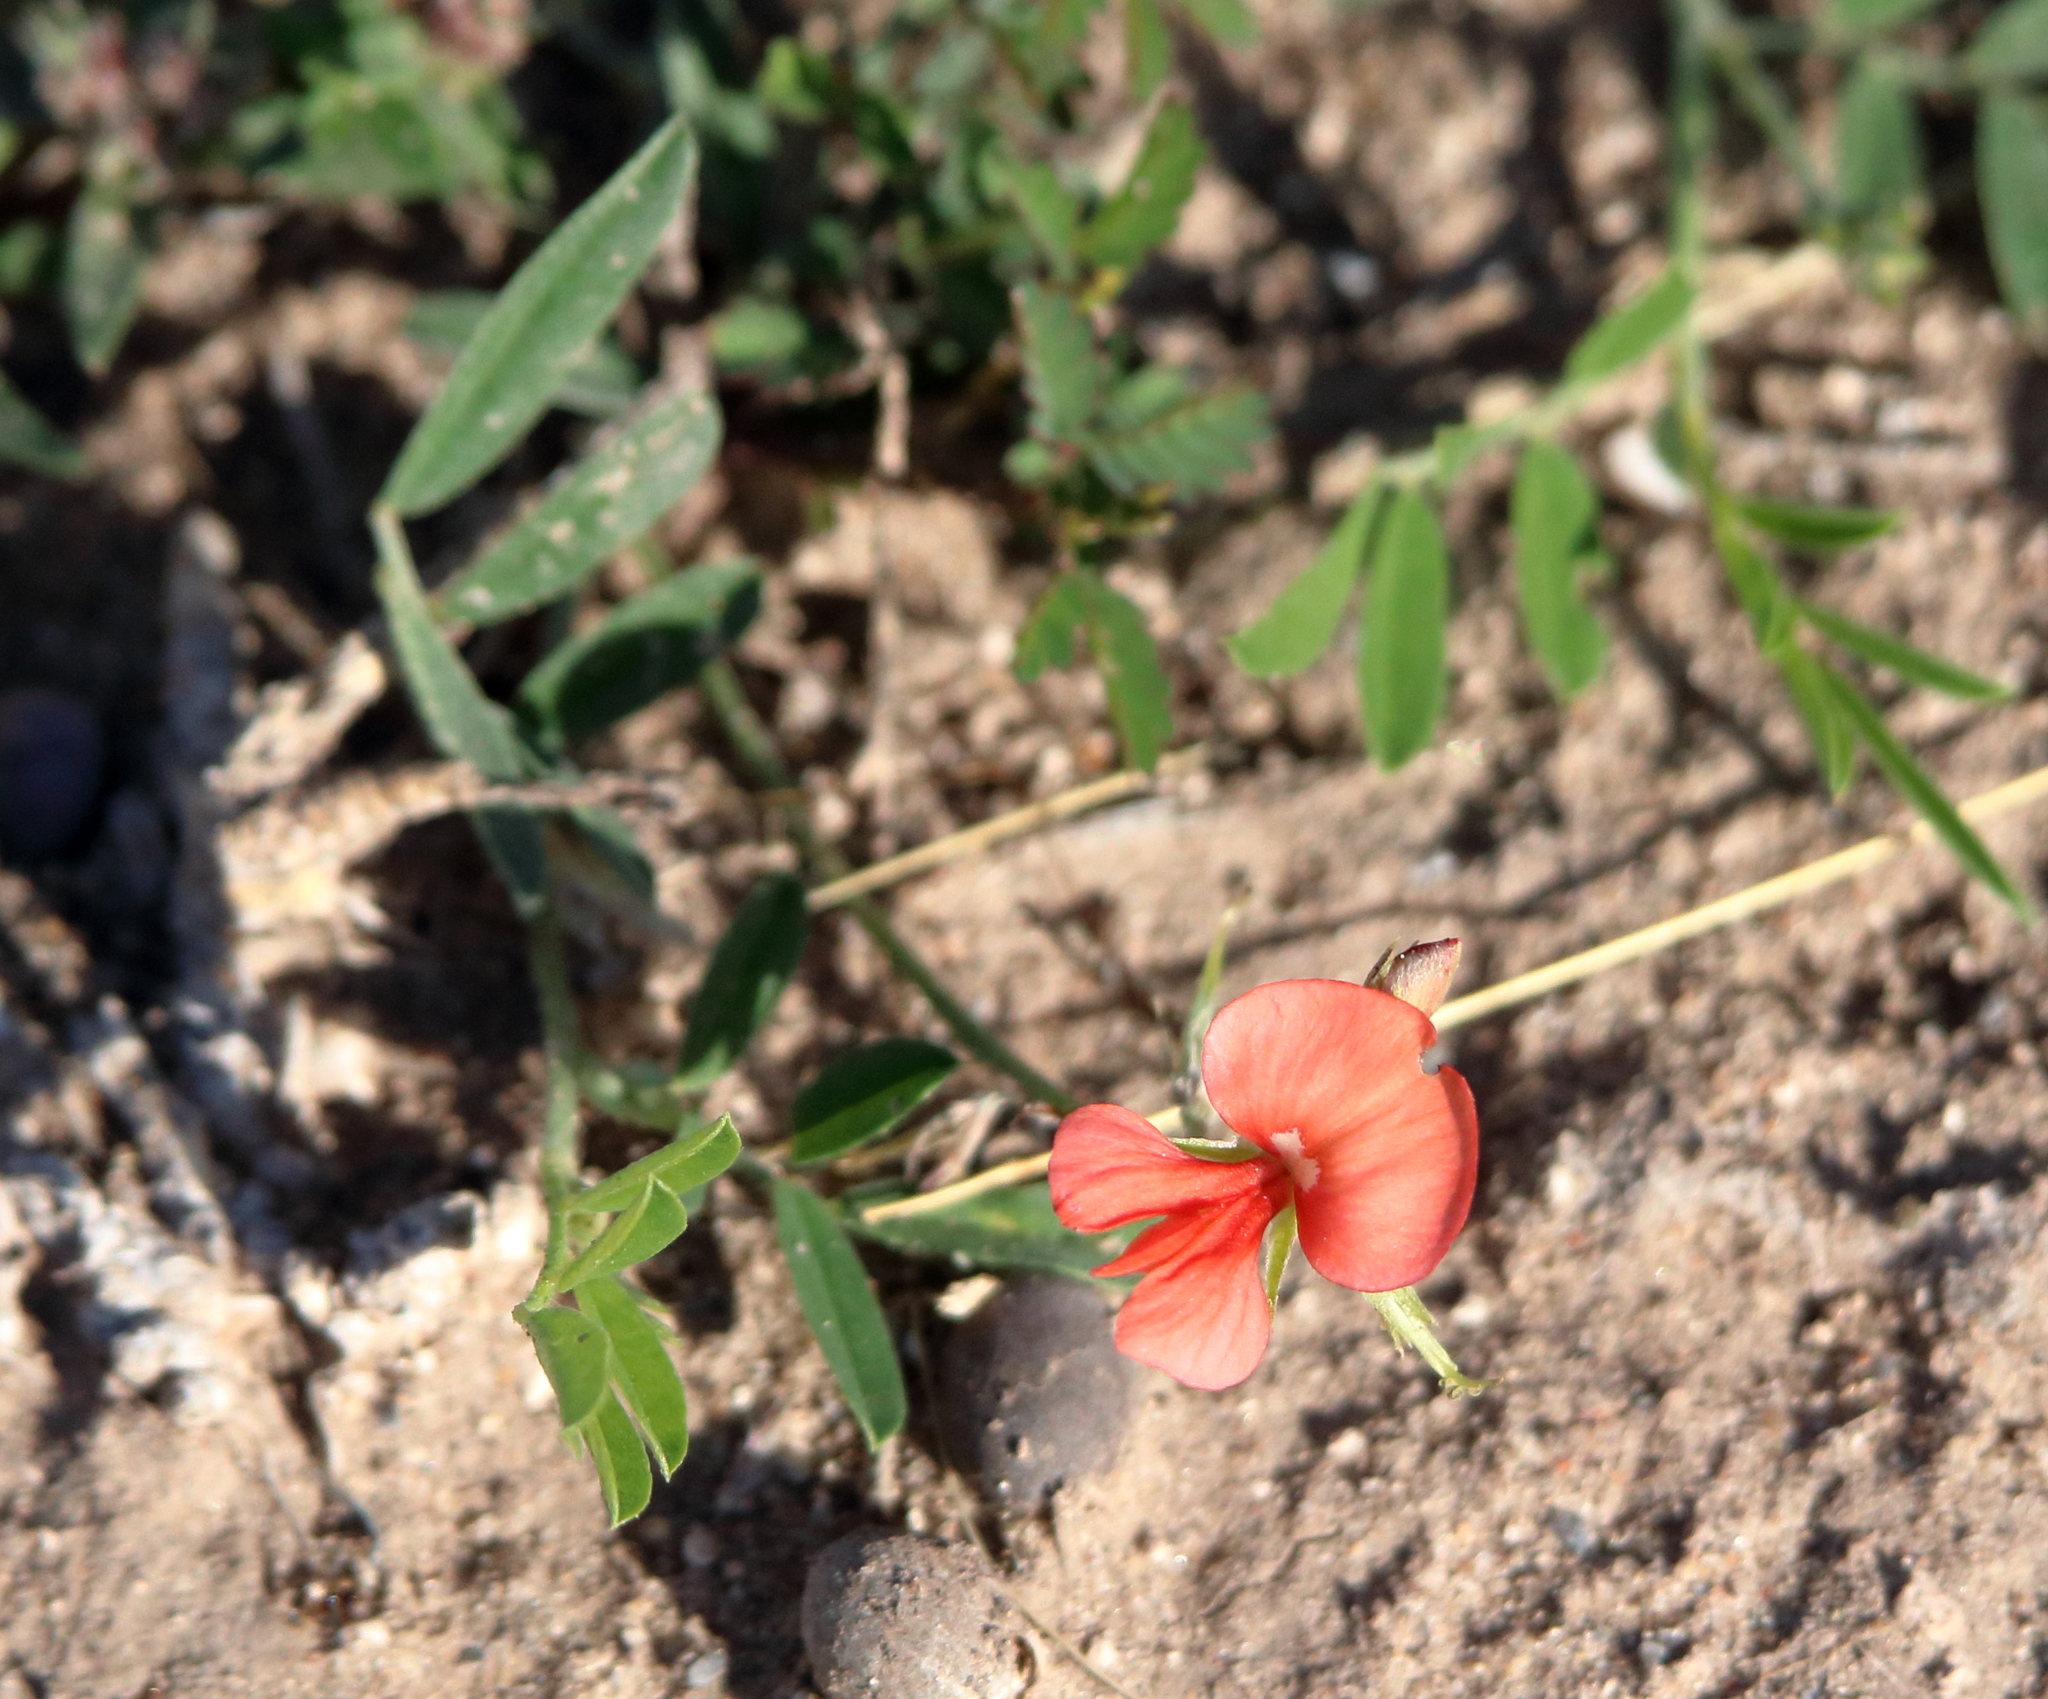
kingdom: Plantae
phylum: Tracheophyta
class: Magnoliopsida
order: Fabales
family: Fabaceae
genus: Indigofera
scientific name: Indigofera miniata
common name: Coast indigo
